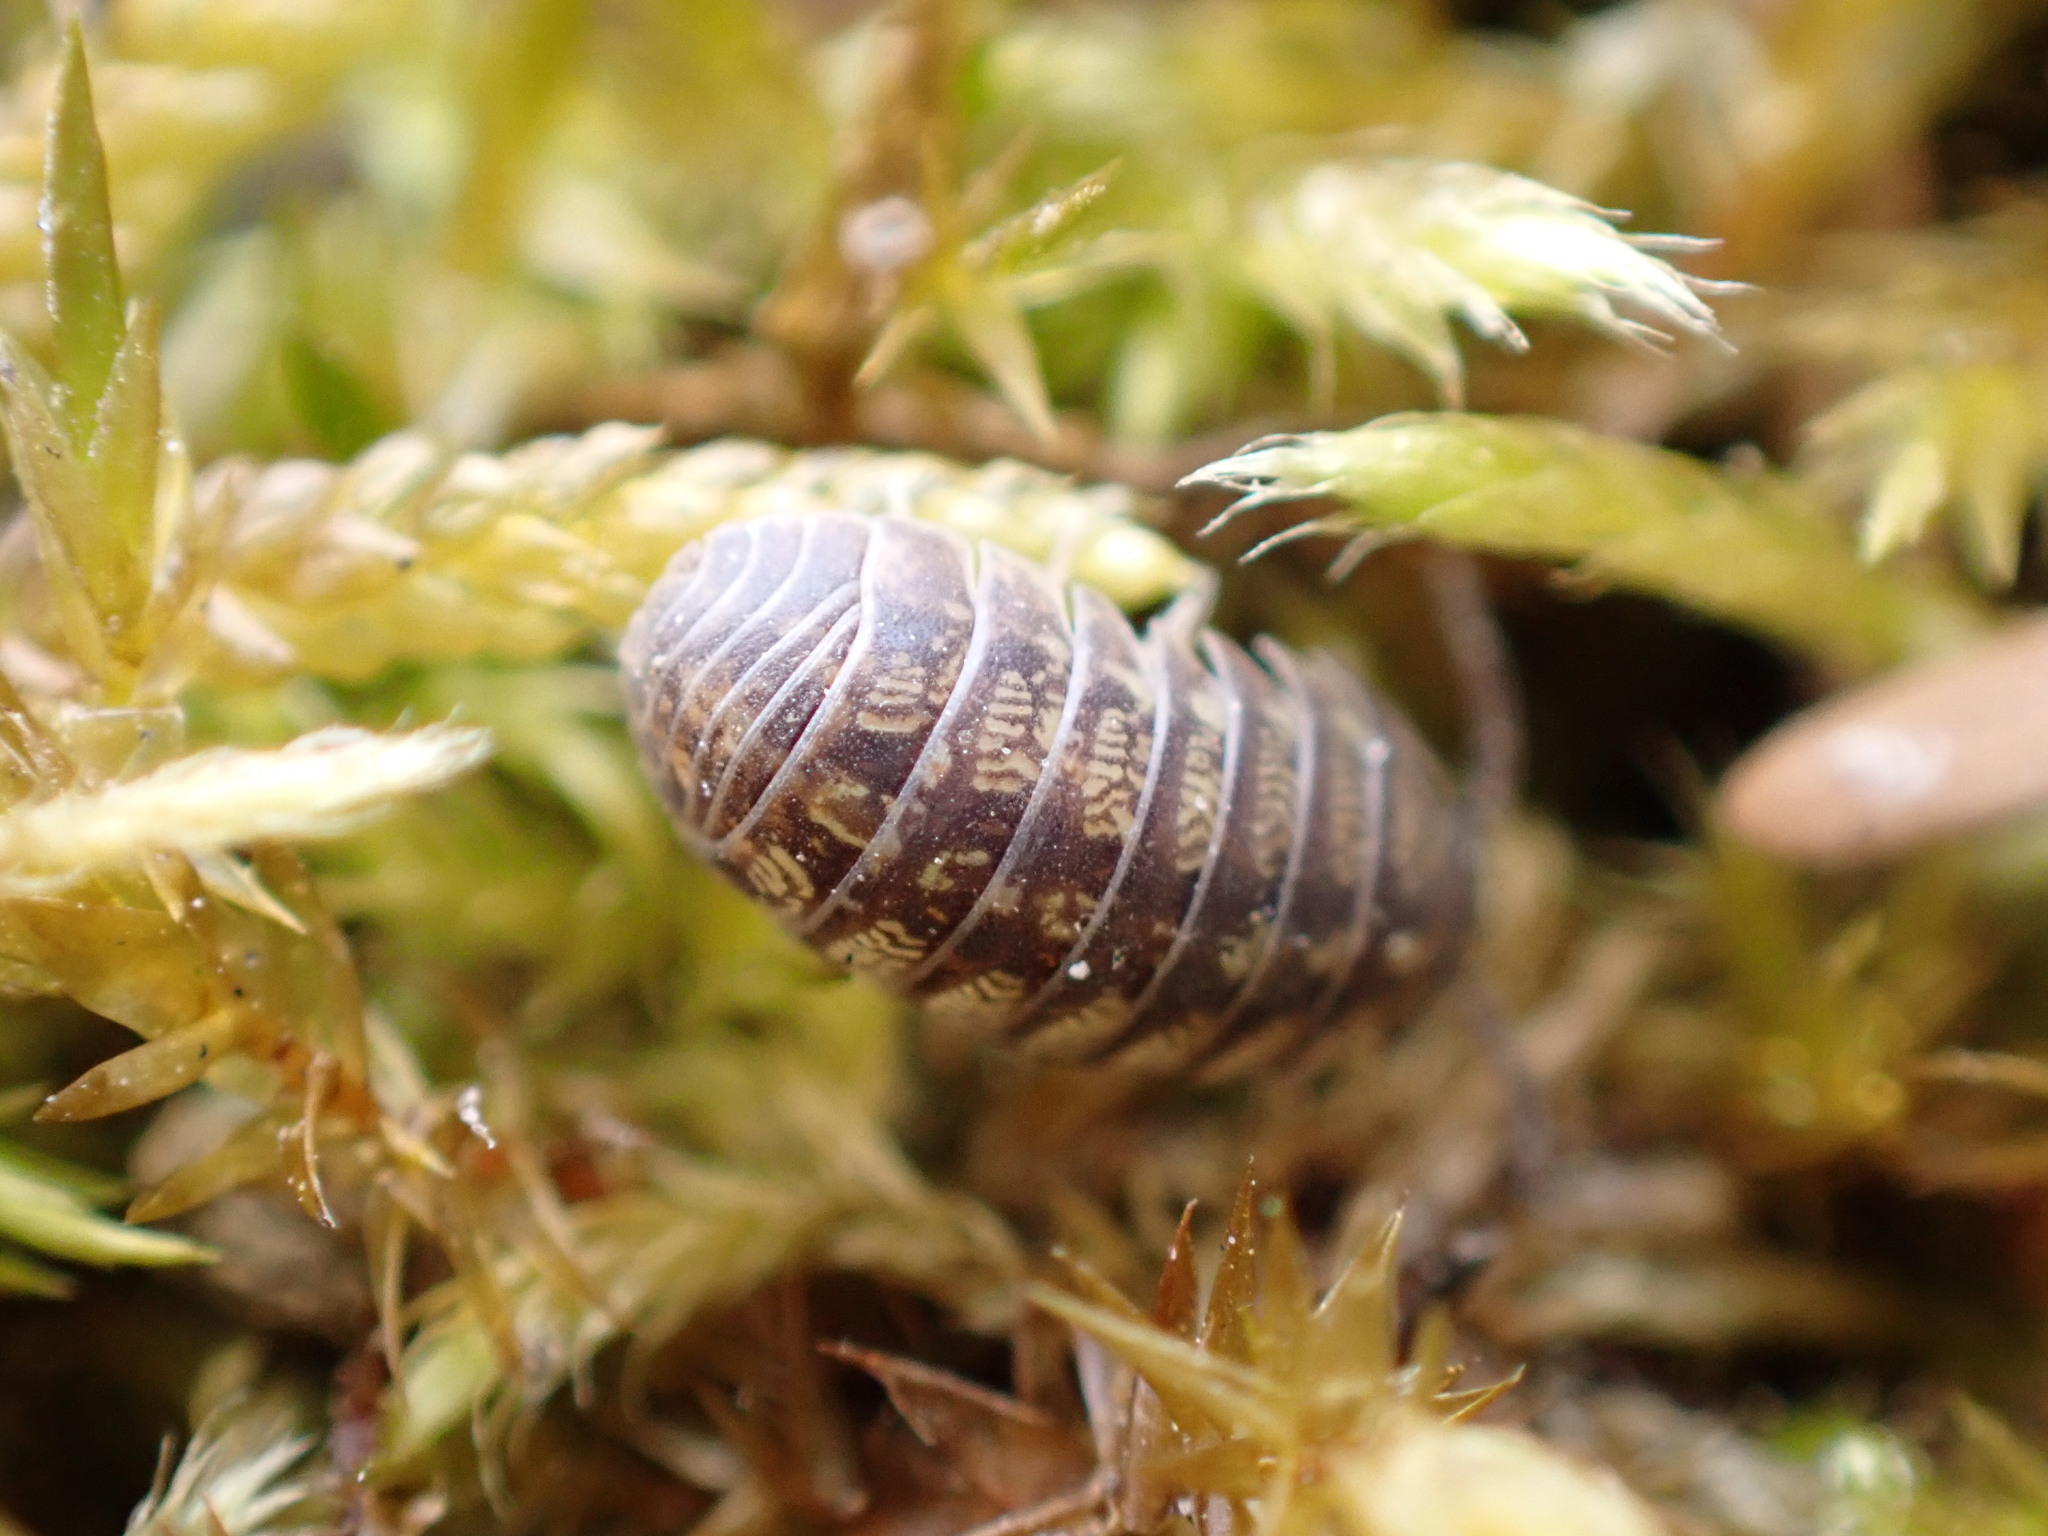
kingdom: Animalia
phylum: Arthropoda
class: Malacostraca
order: Isopoda
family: Armadillidiidae
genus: Armadillidium
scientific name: Armadillidium vulgare
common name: Common pill woodlouse
